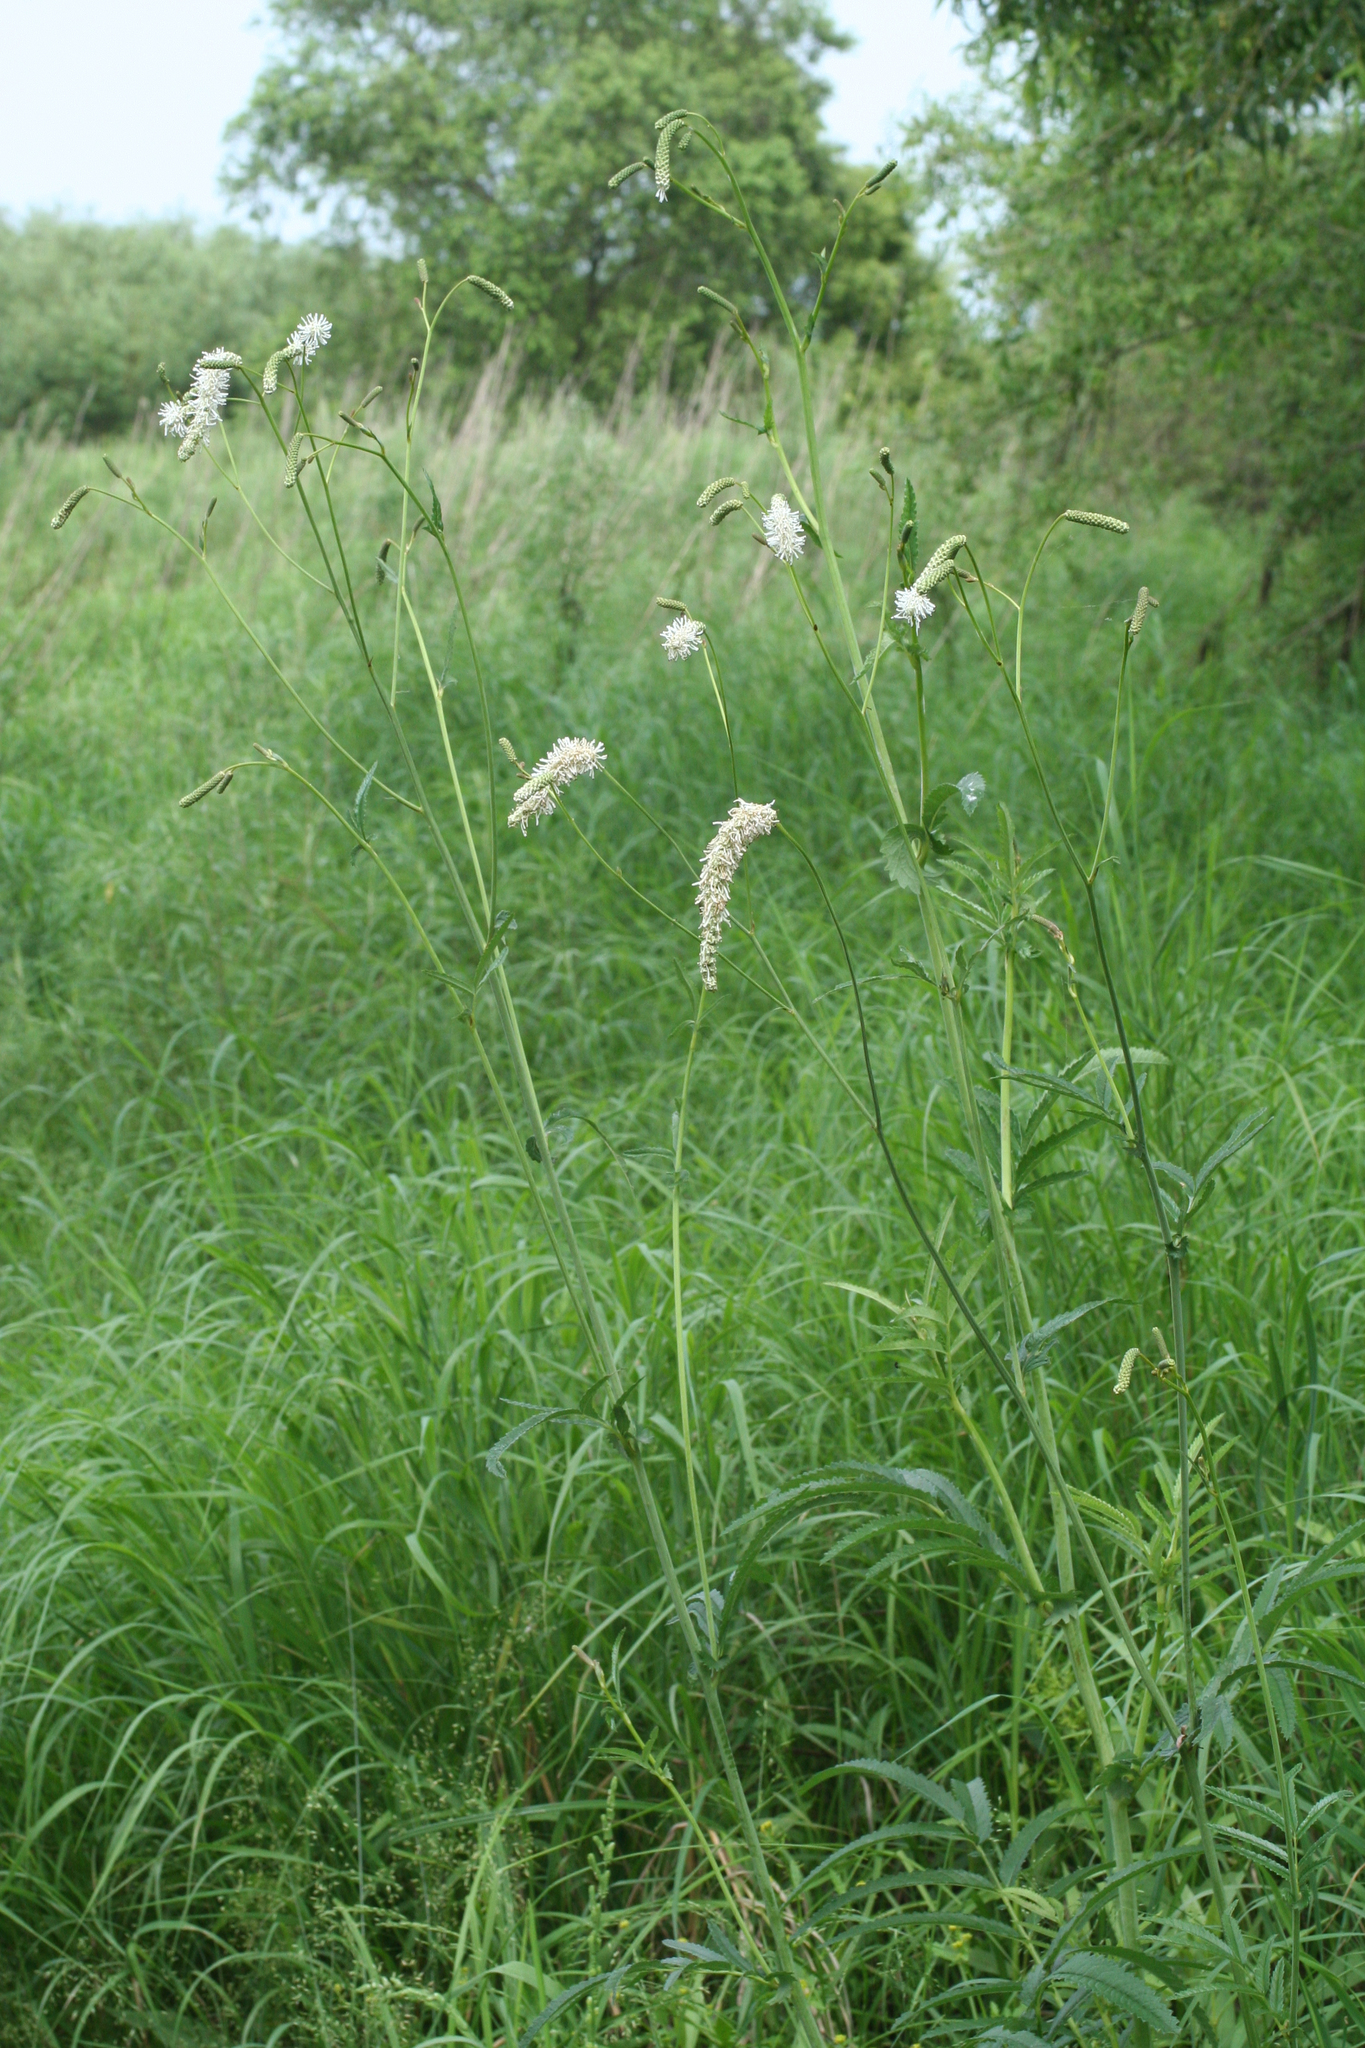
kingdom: Plantae
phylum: Tracheophyta
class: Magnoliopsida
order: Rosales
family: Rosaceae
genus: Poterium
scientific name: Poterium tenuifolium
